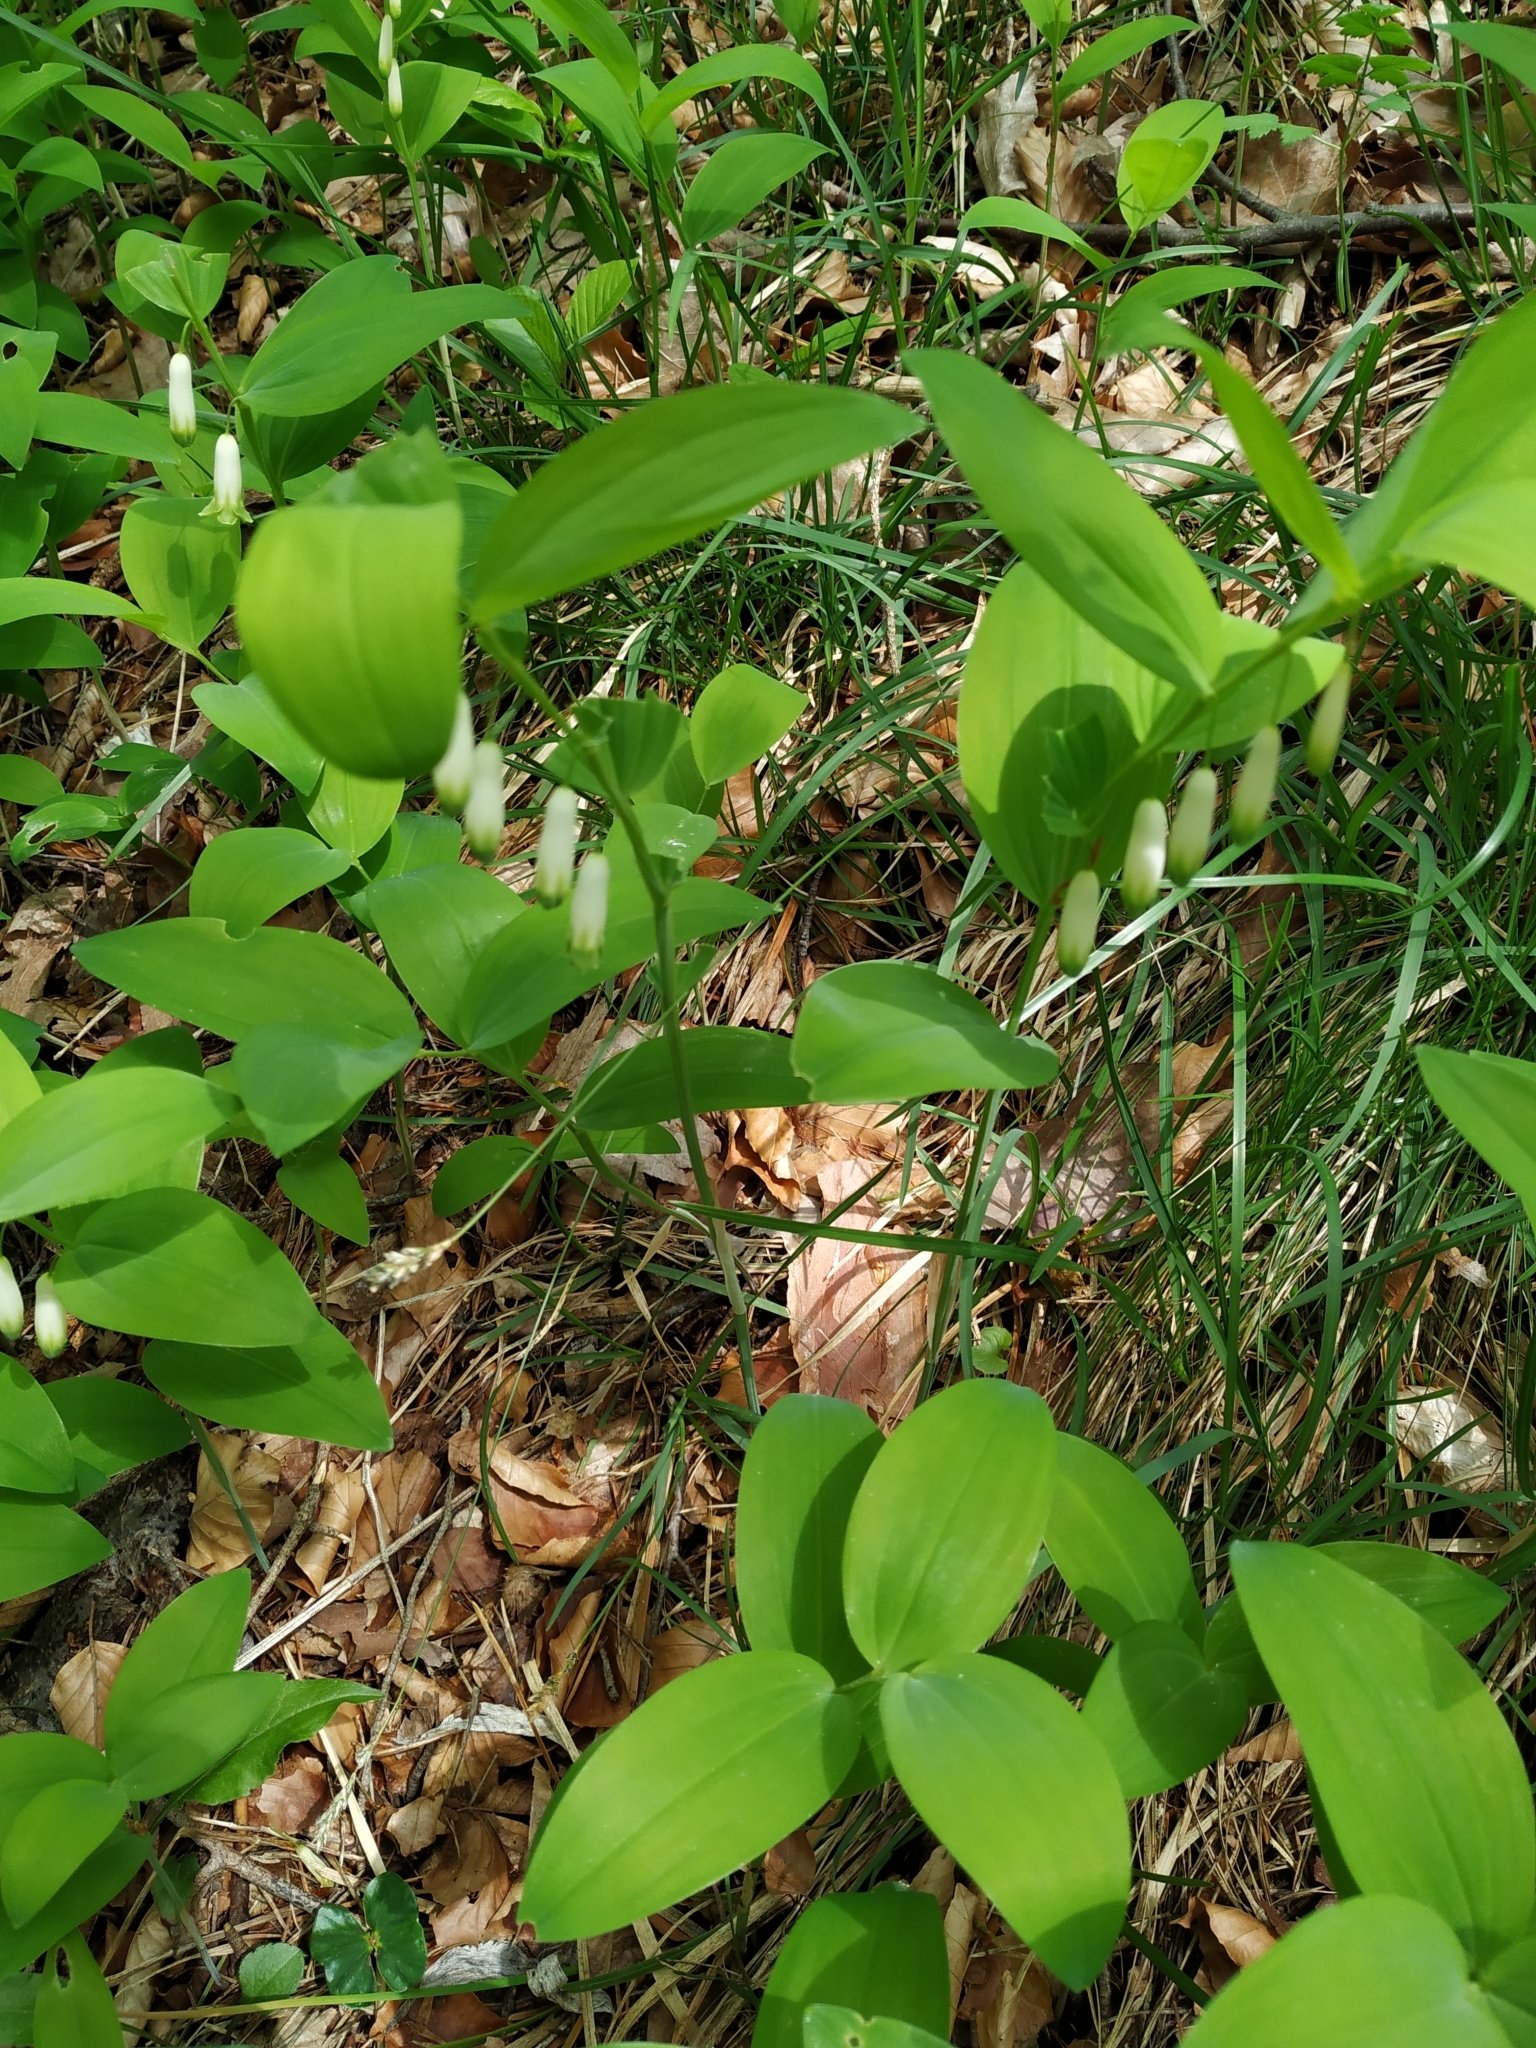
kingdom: Plantae
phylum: Tracheophyta
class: Liliopsida
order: Asparagales
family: Asparagaceae
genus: Polygonatum
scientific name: Polygonatum odoratum
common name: Angular solomon's-seal
